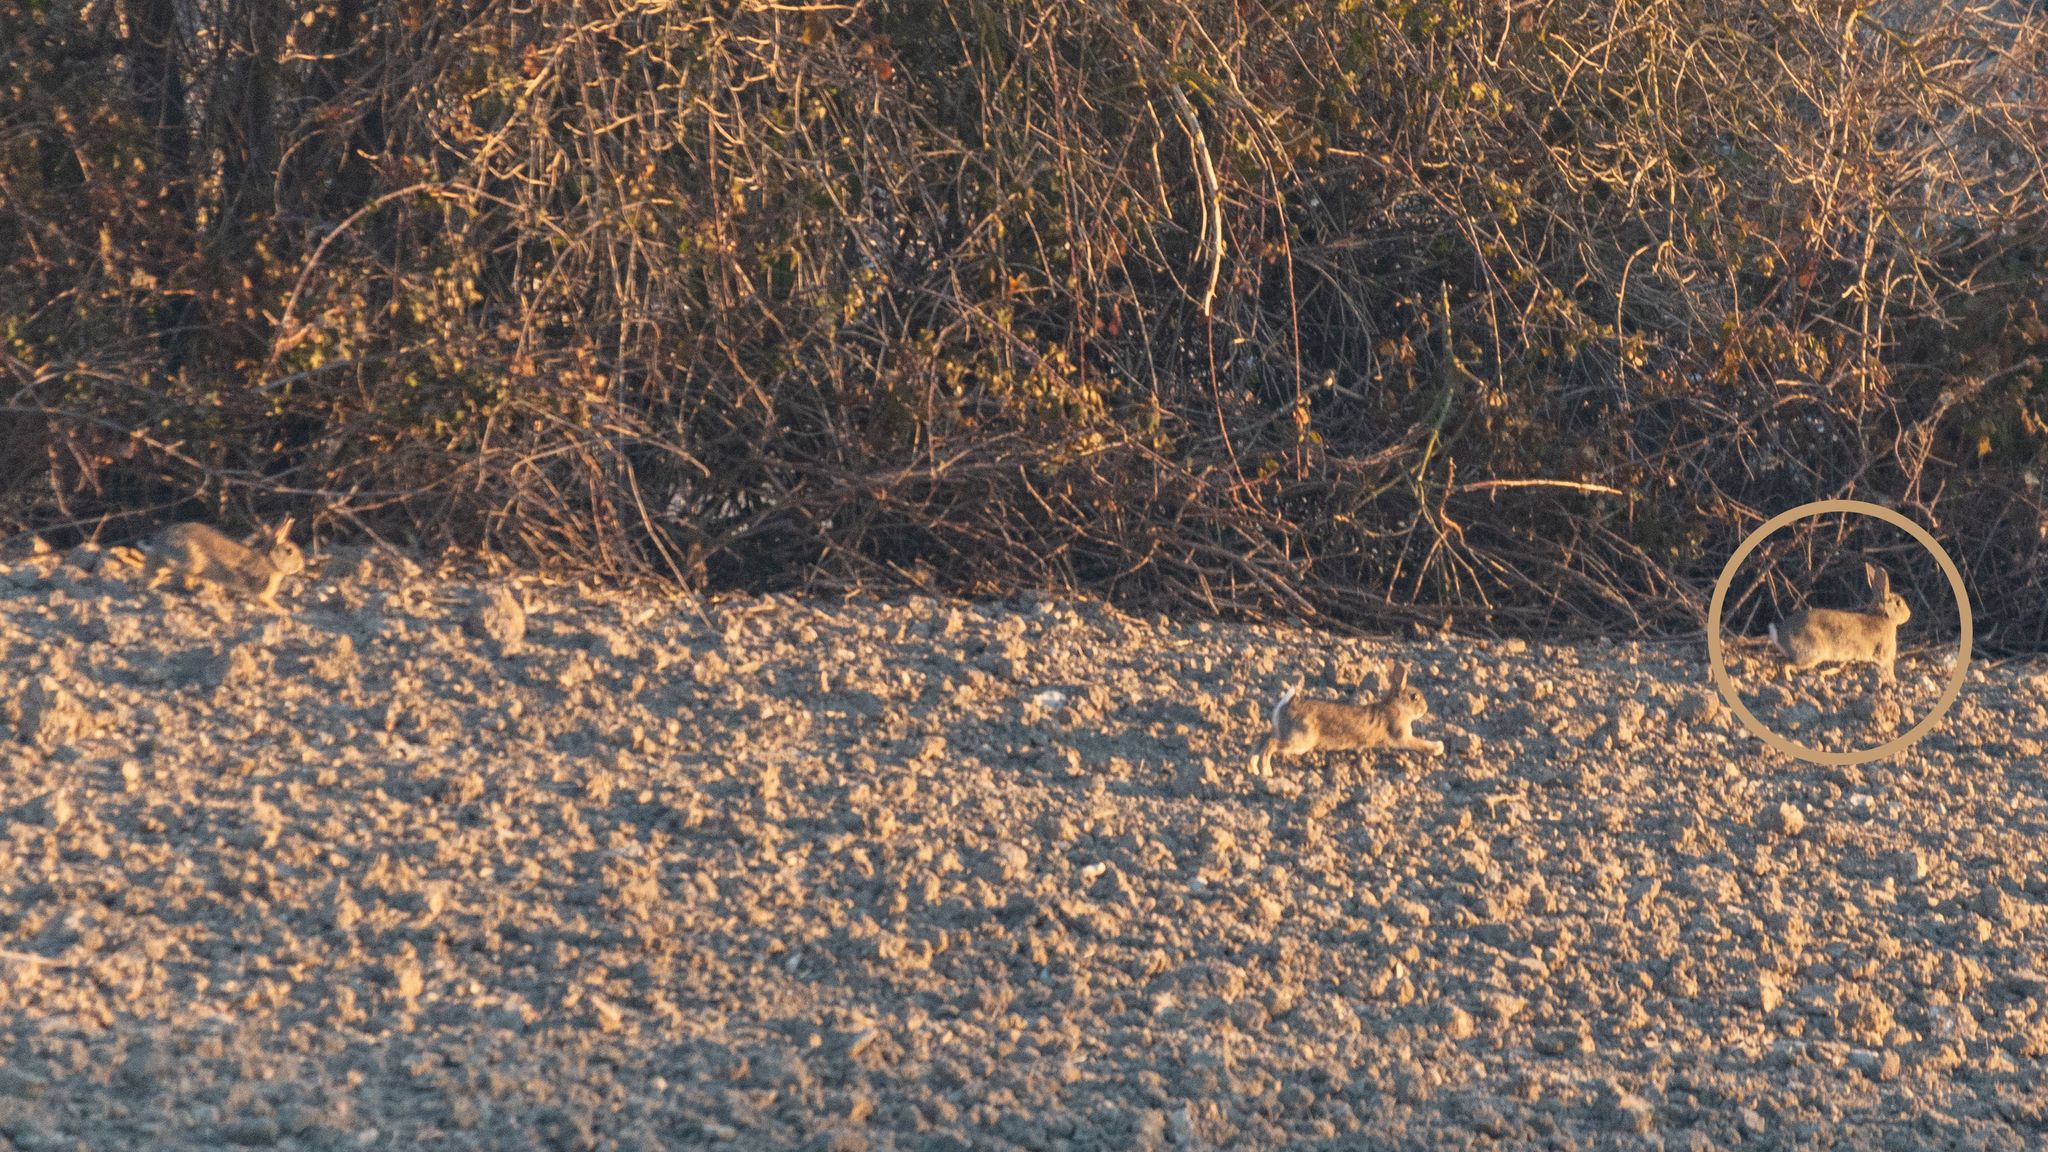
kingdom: Animalia
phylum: Chordata
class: Mammalia
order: Lagomorpha
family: Leporidae
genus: Oryctolagus
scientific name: Oryctolagus cuniculus
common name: European rabbit
